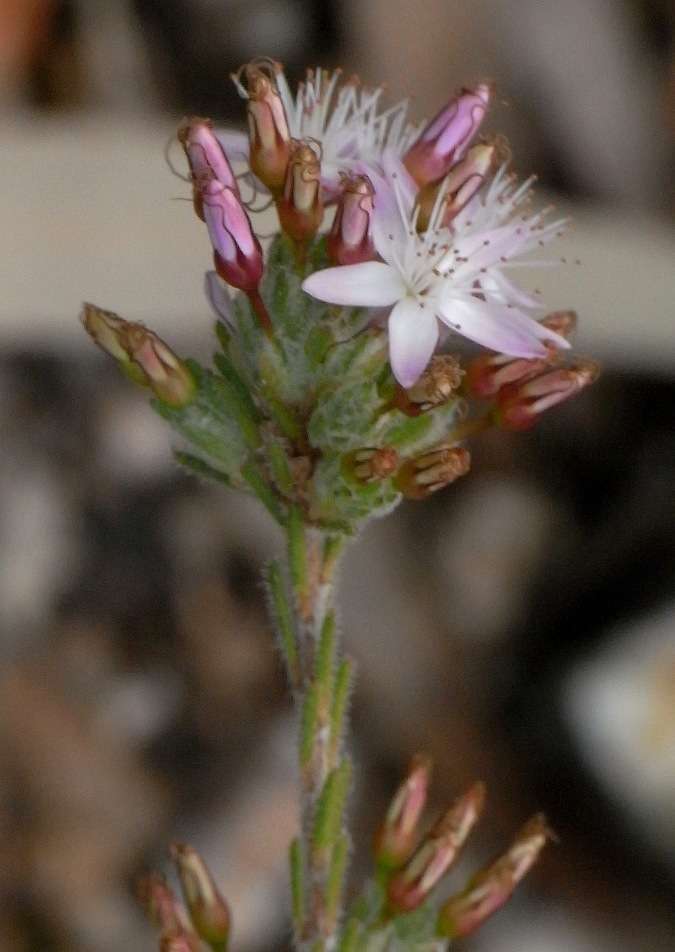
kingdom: Plantae
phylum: Tracheophyta
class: Magnoliopsida
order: Myrtales
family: Myrtaceae
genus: Calytrix
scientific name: Calytrix tetragona
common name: Common fringe myrtle
